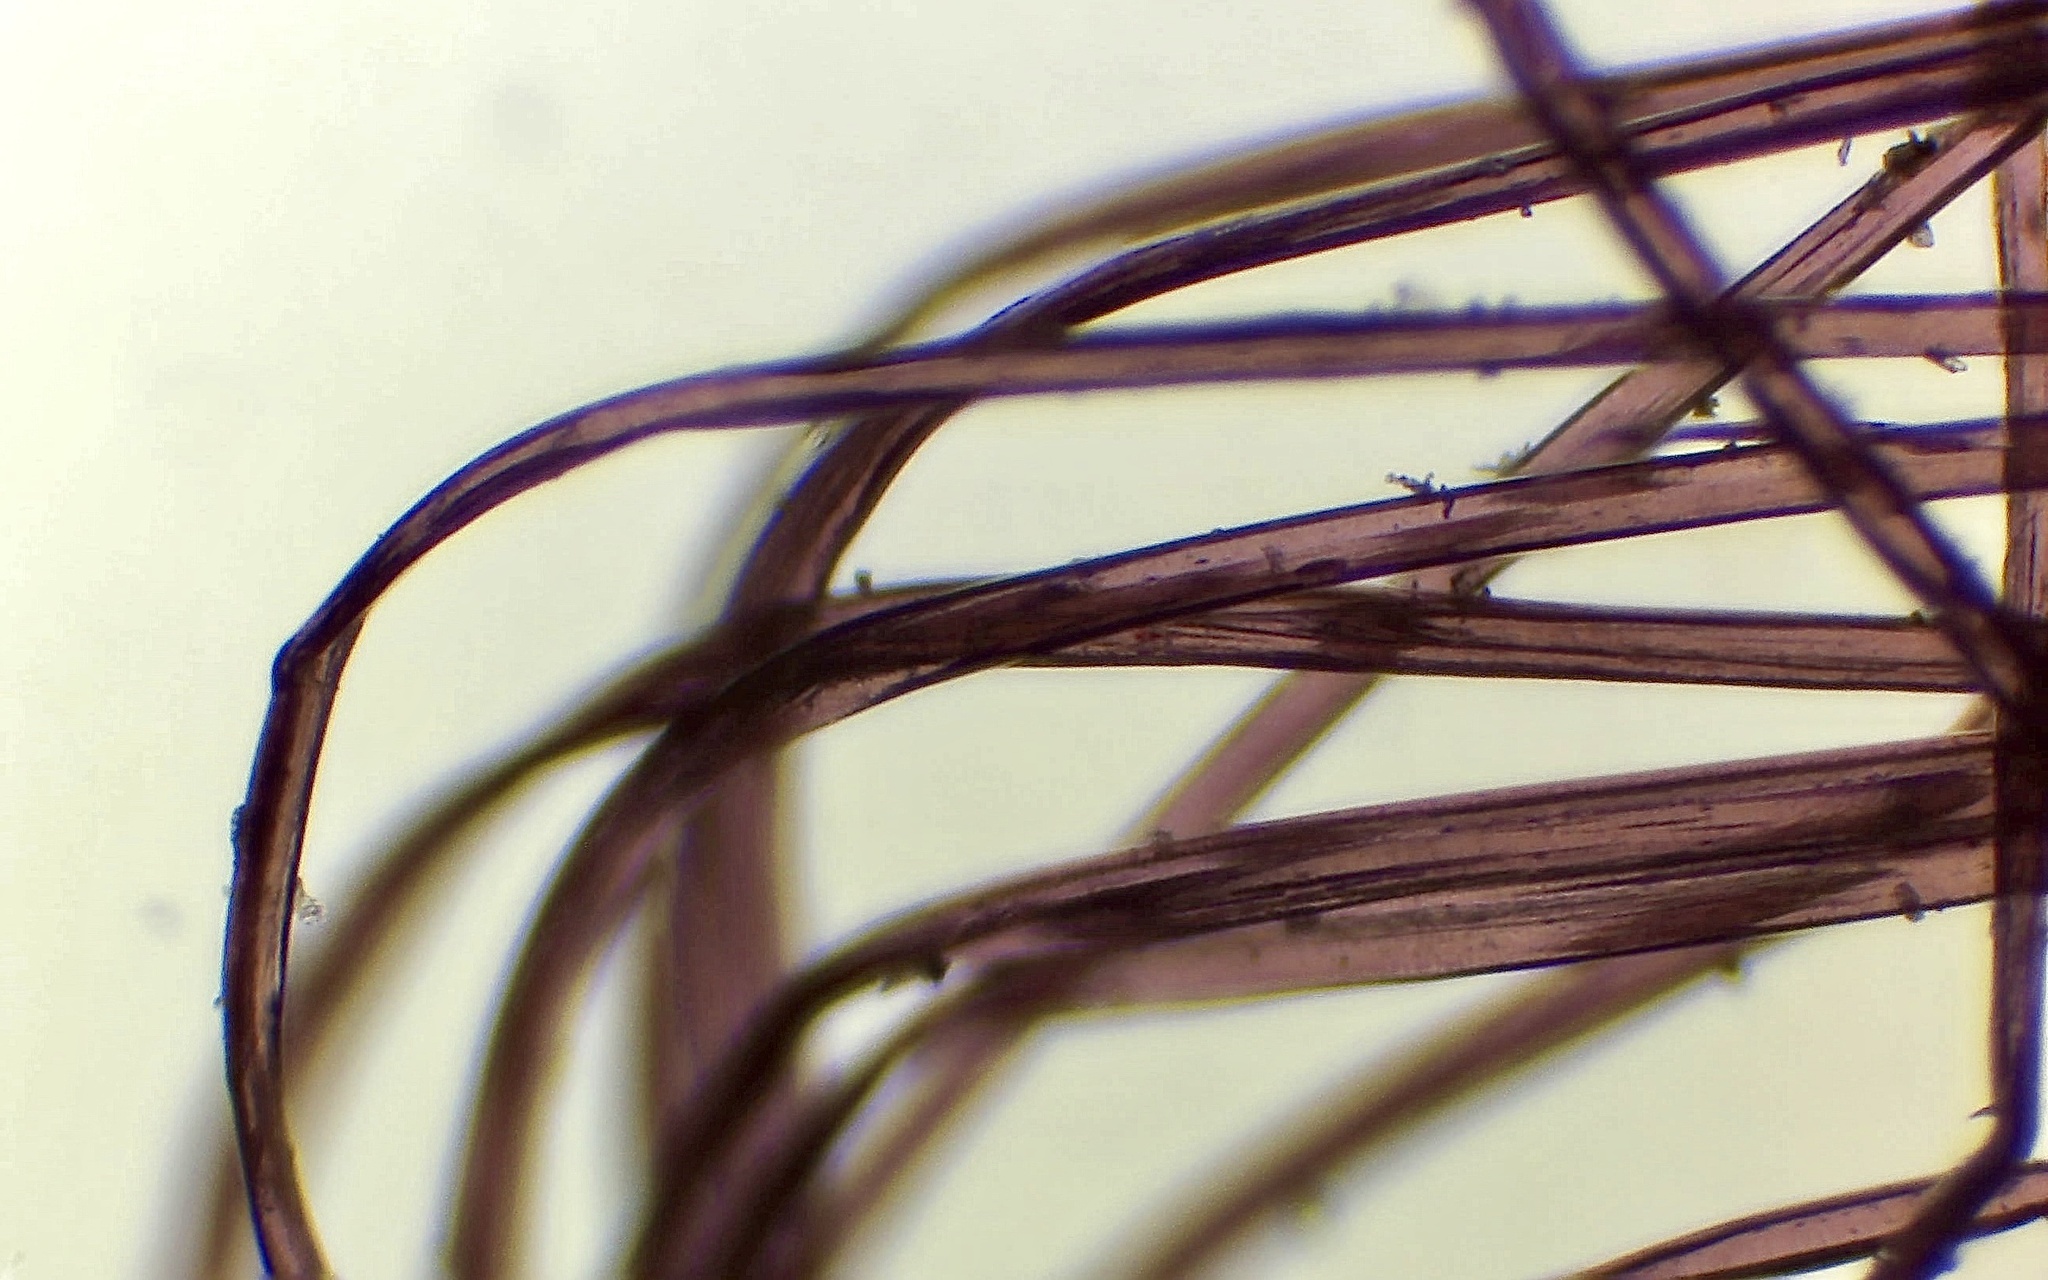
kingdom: Protozoa
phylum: Mycetozoa
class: Myxomycetes
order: Stemonitidales
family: Stemonitidaceae
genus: Stemonaria
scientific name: Stemonaria longa
